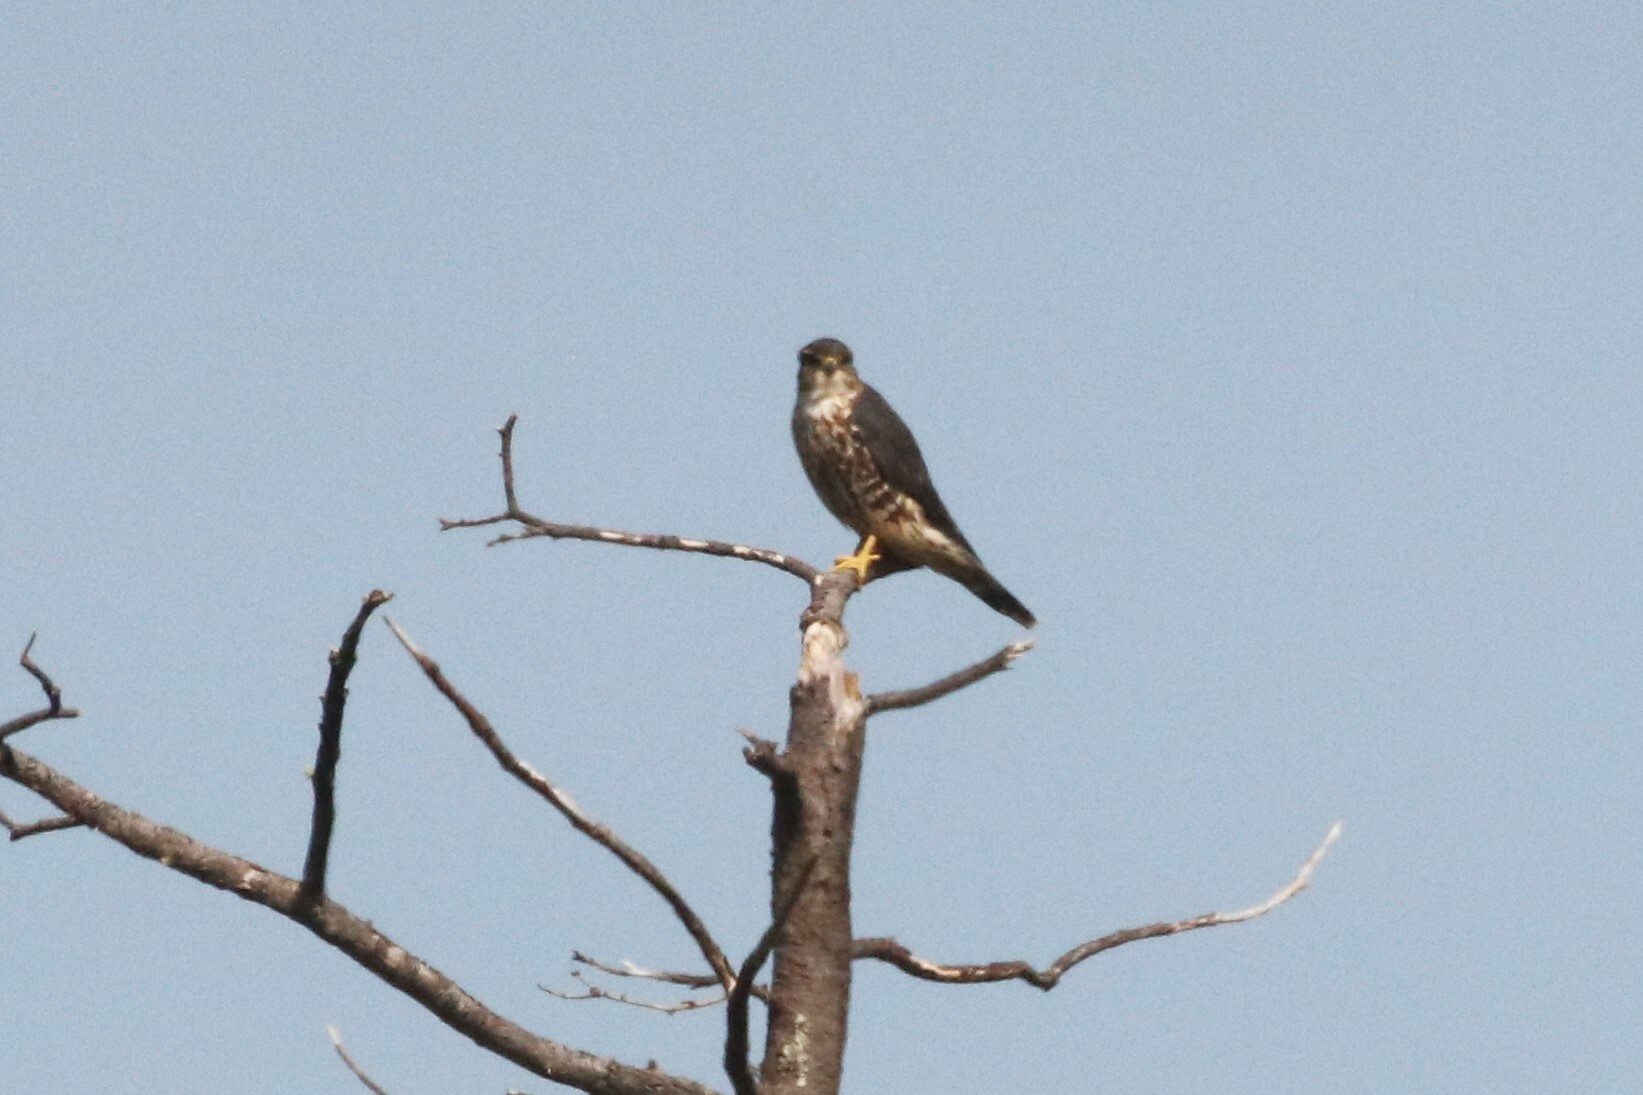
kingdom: Animalia
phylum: Chordata
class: Aves
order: Falconiformes
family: Falconidae
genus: Falco
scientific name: Falco columbarius
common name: Merlin
